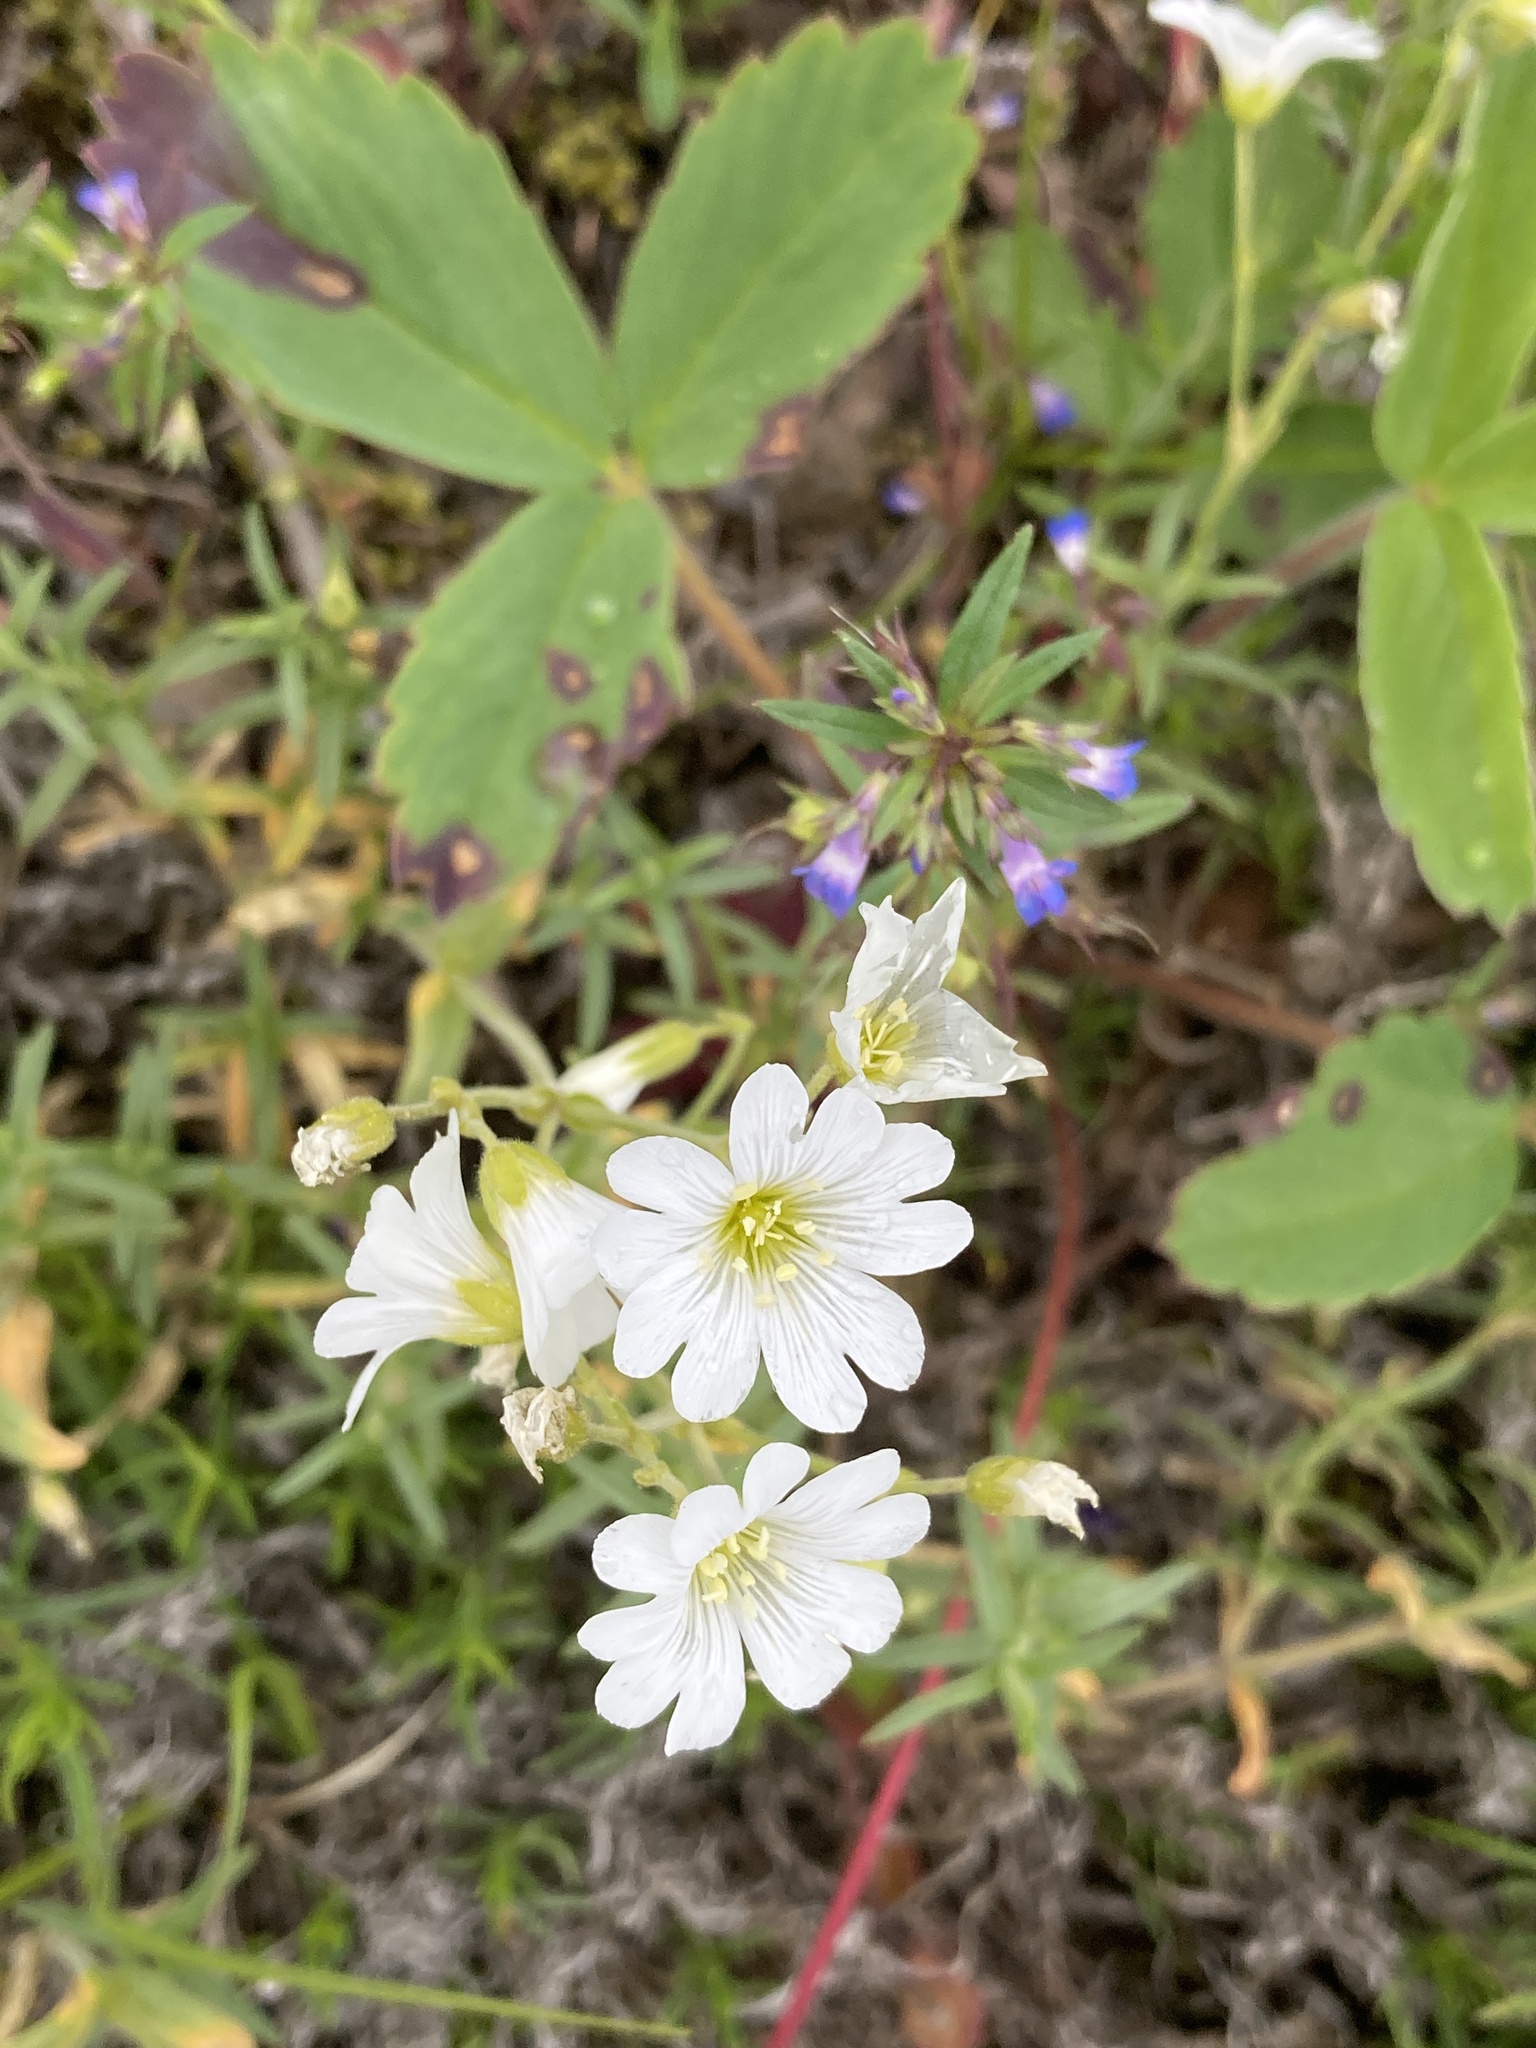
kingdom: Plantae
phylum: Tracheophyta
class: Magnoliopsida
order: Caryophyllales
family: Caryophyllaceae
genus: Cerastium
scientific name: Cerastium arvense
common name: Field mouse-ear
